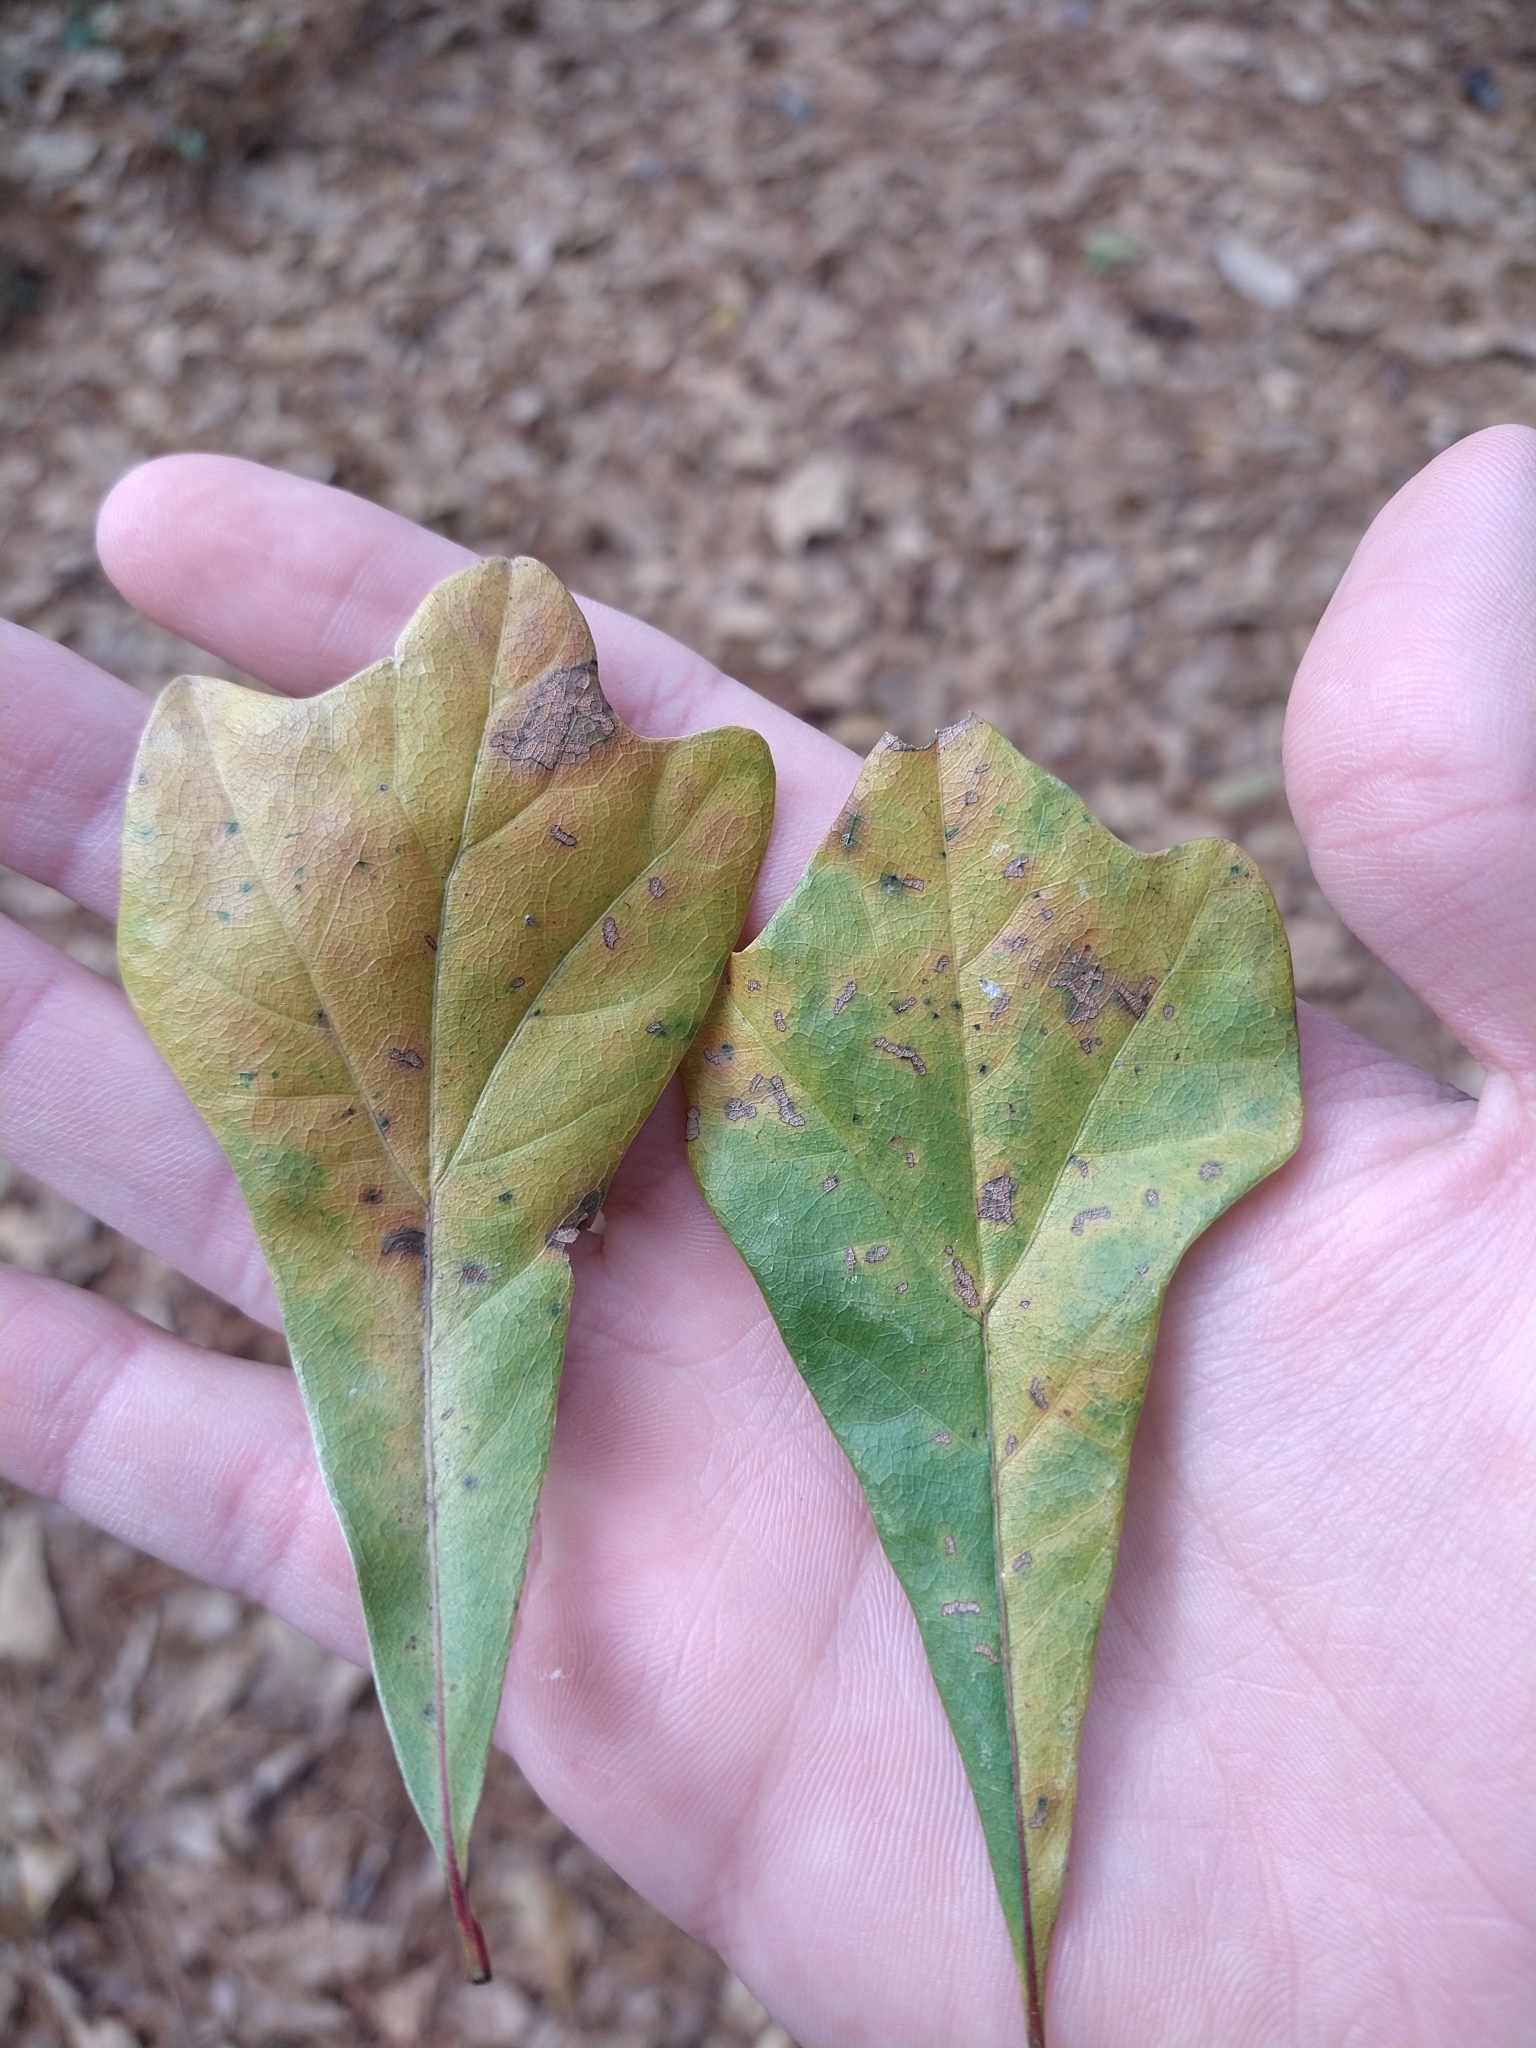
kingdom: Plantae
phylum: Tracheophyta
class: Magnoliopsida
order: Fagales
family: Fagaceae
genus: Quercus
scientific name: Quercus nigra
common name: Water oak
